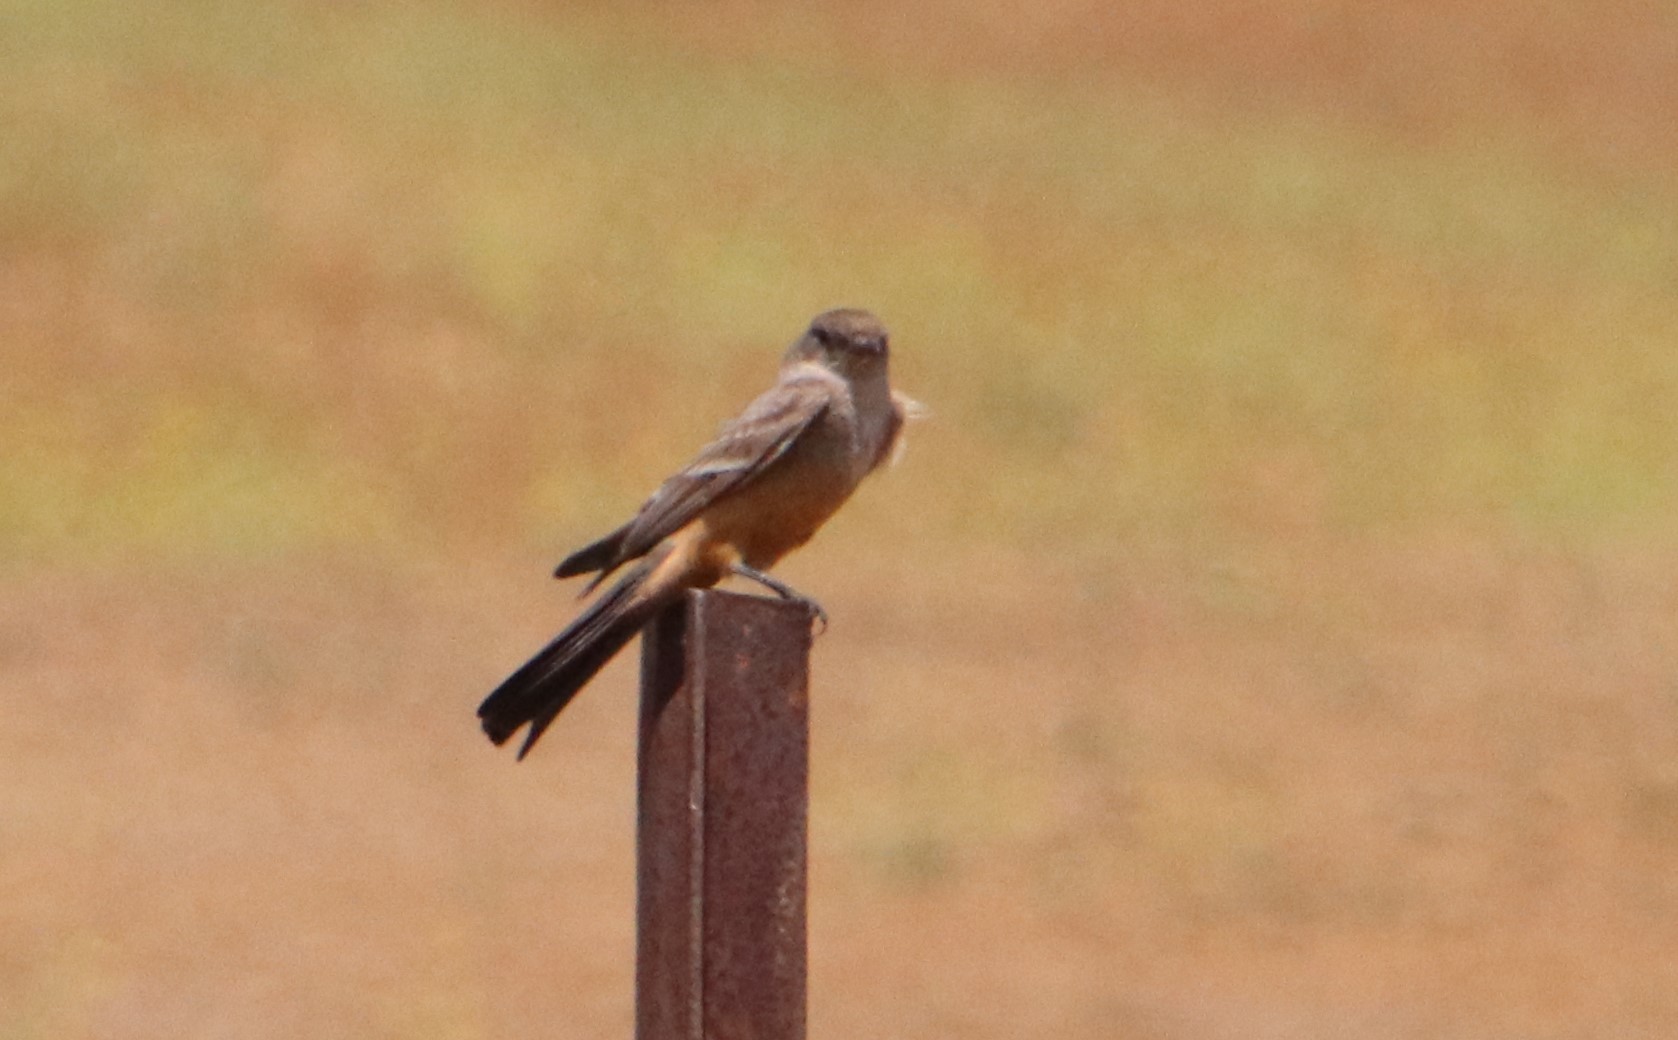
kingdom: Animalia
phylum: Chordata
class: Aves
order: Passeriformes
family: Tyrannidae
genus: Sayornis
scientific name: Sayornis saya
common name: Say's phoebe
